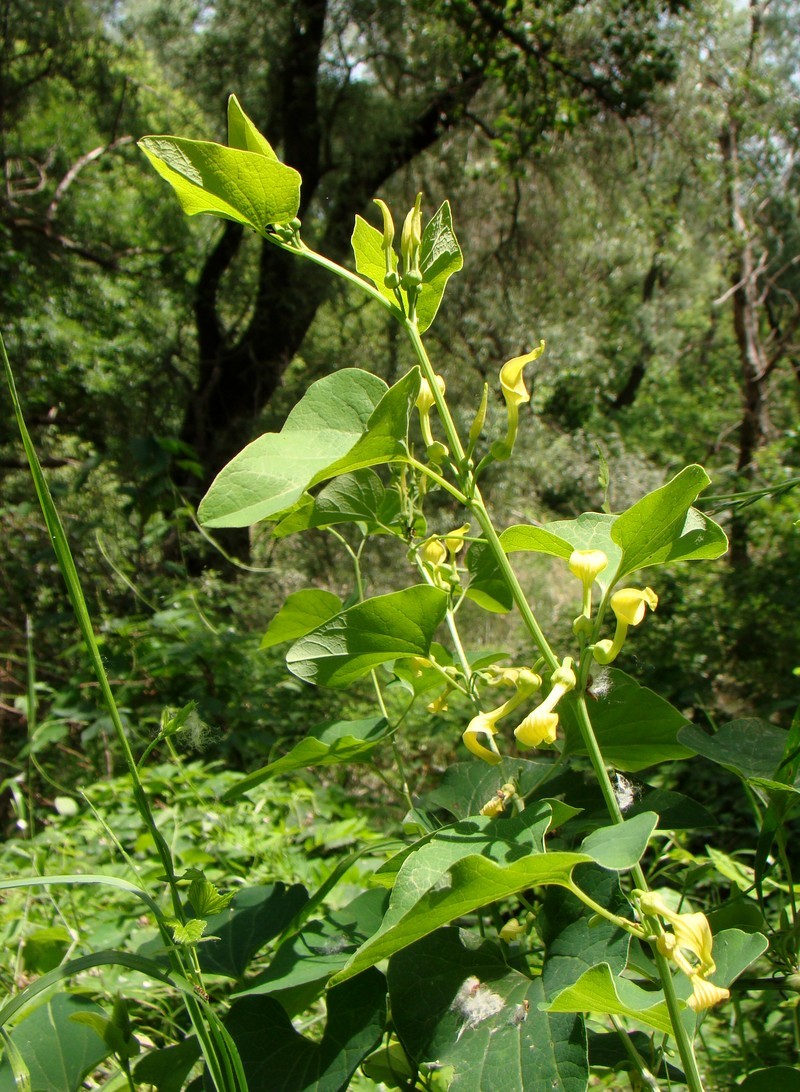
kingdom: Plantae
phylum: Tracheophyta
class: Magnoliopsida
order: Piperales
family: Aristolochiaceae
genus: Aristolochia
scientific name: Aristolochia clematitis
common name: Birthwort
